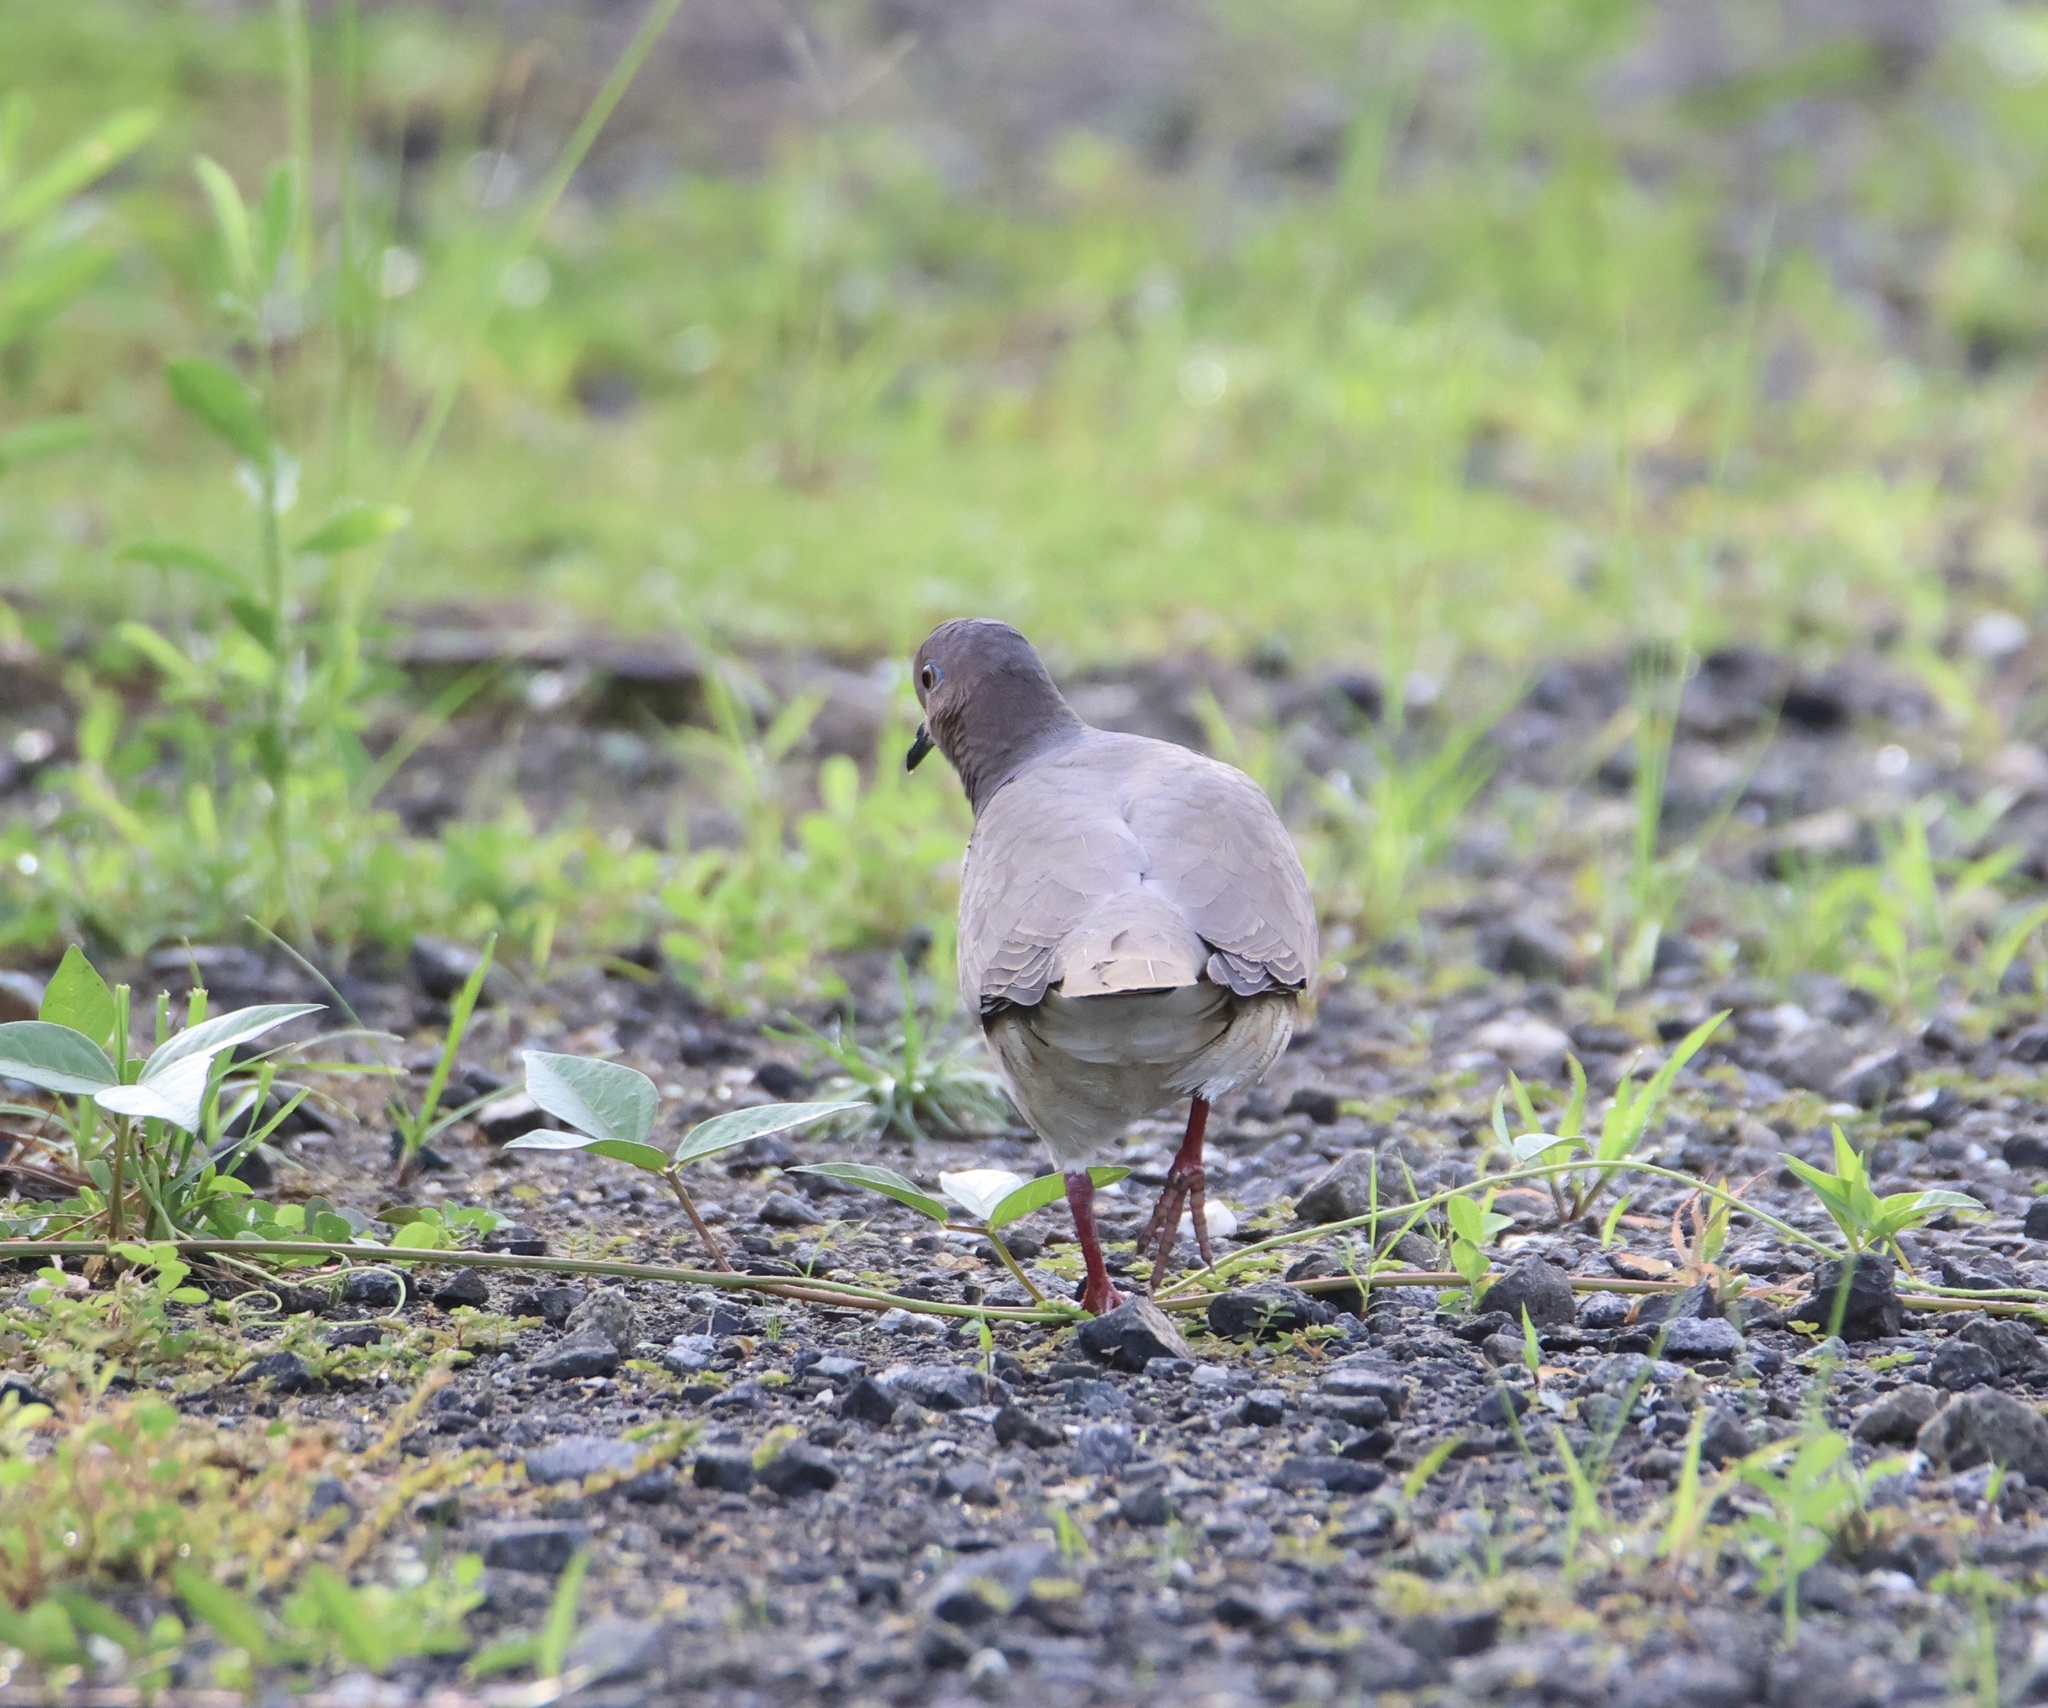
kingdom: Animalia
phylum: Chordata
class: Aves
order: Columbiformes
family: Columbidae
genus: Leptotila
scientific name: Leptotila verreauxi
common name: White-tipped dove
